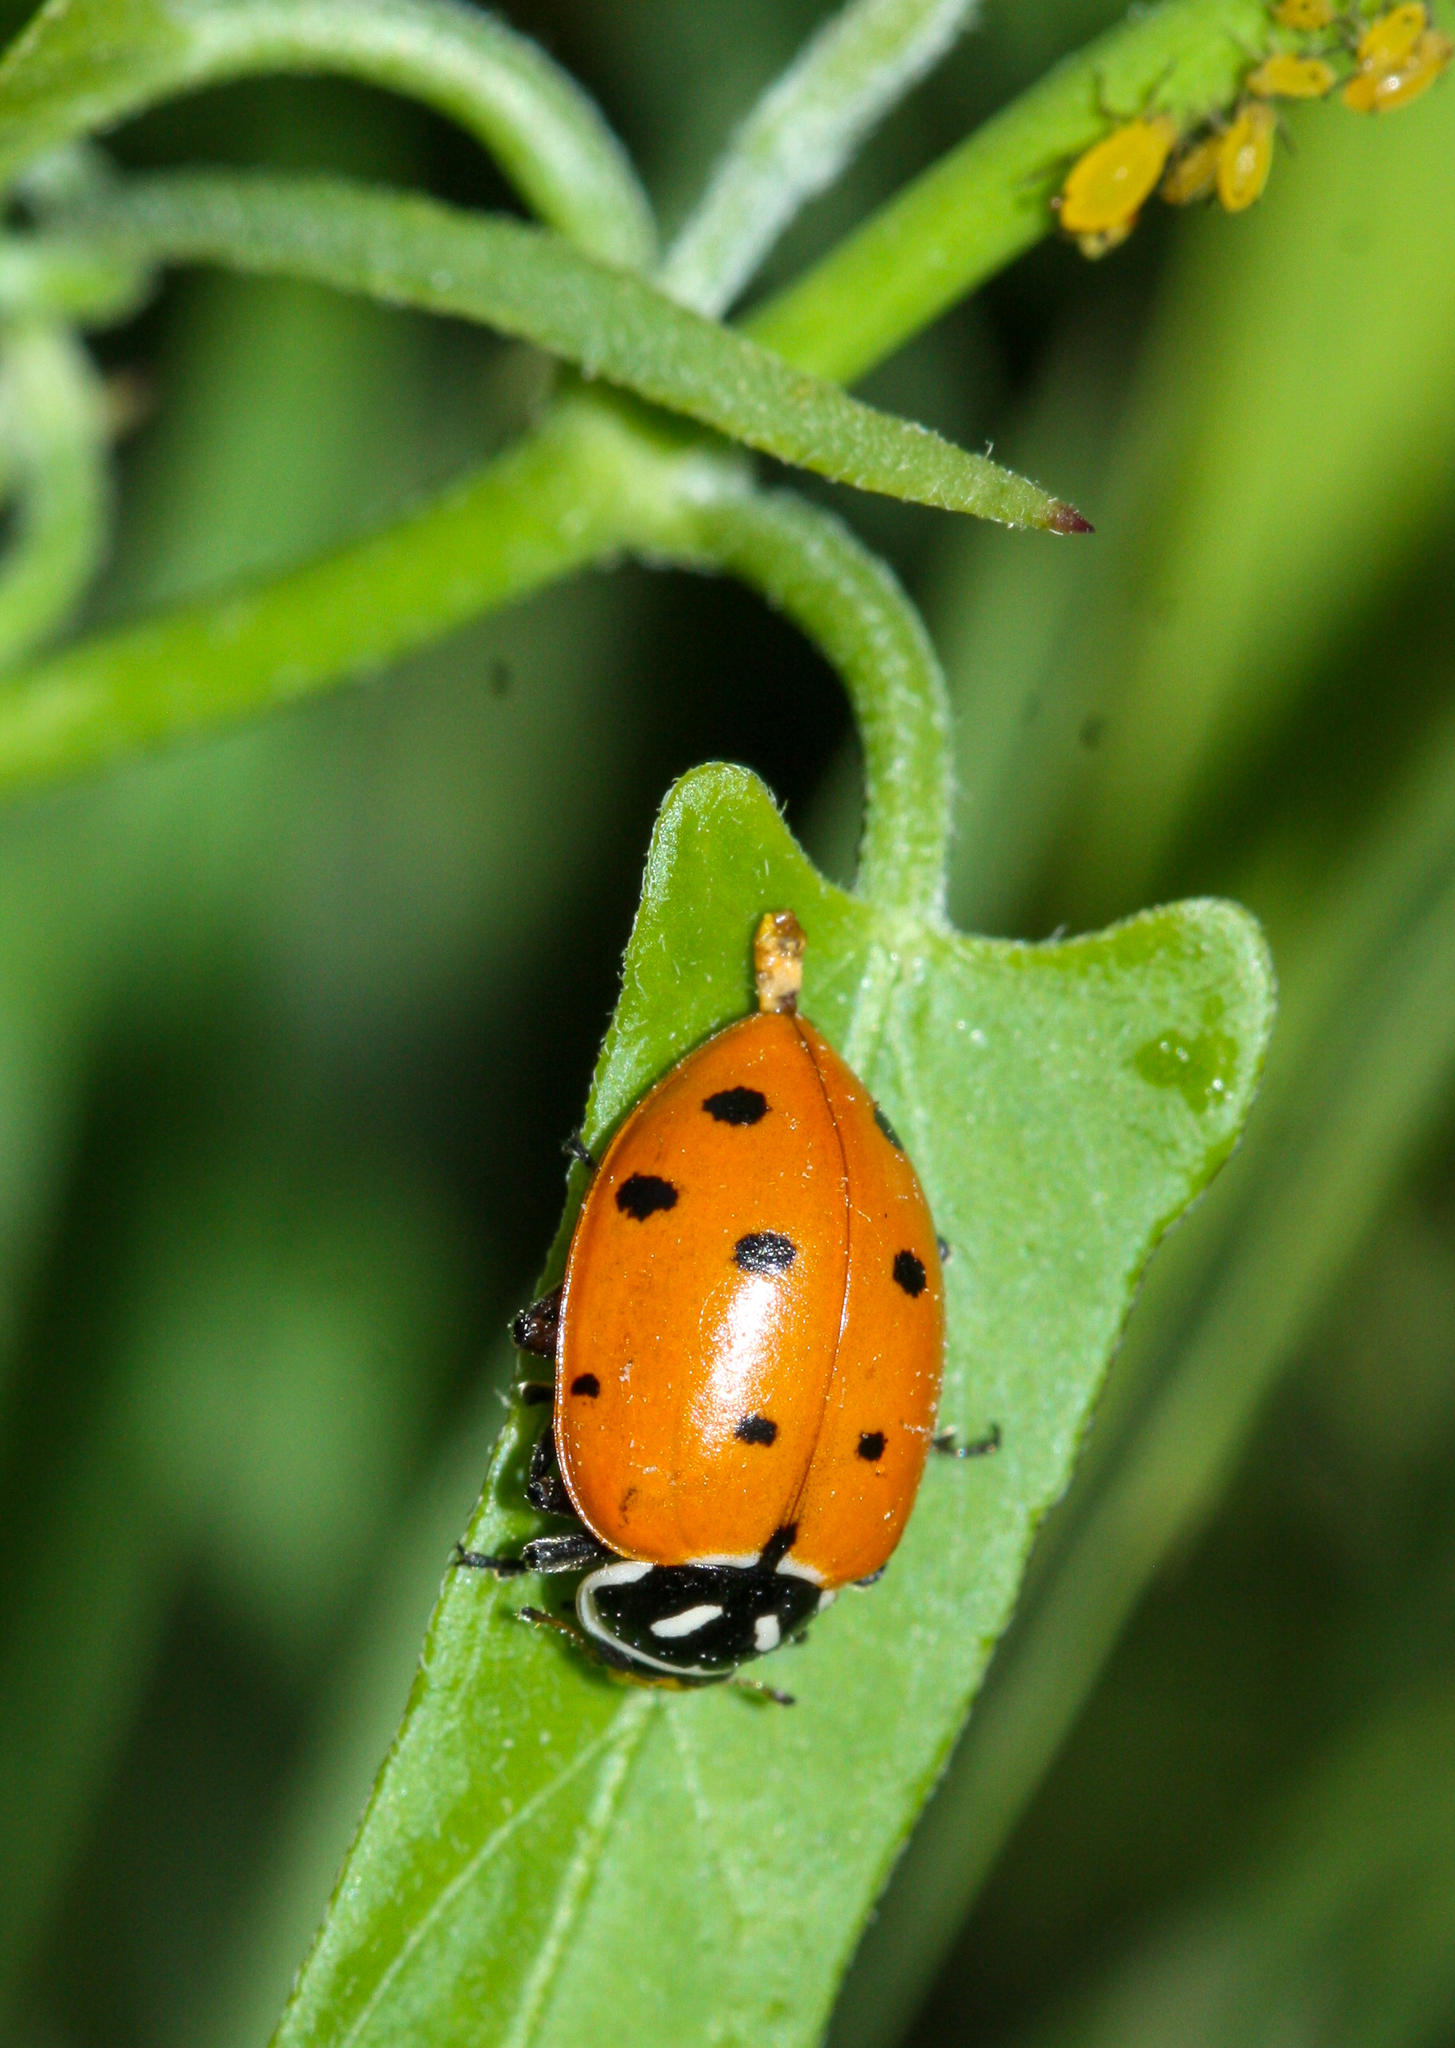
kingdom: Animalia
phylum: Arthropoda
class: Insecta
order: Coleoptera
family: Coccinellidae
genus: Hippodamia
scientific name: Hippodamia convergens
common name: Convergent lady beetle
